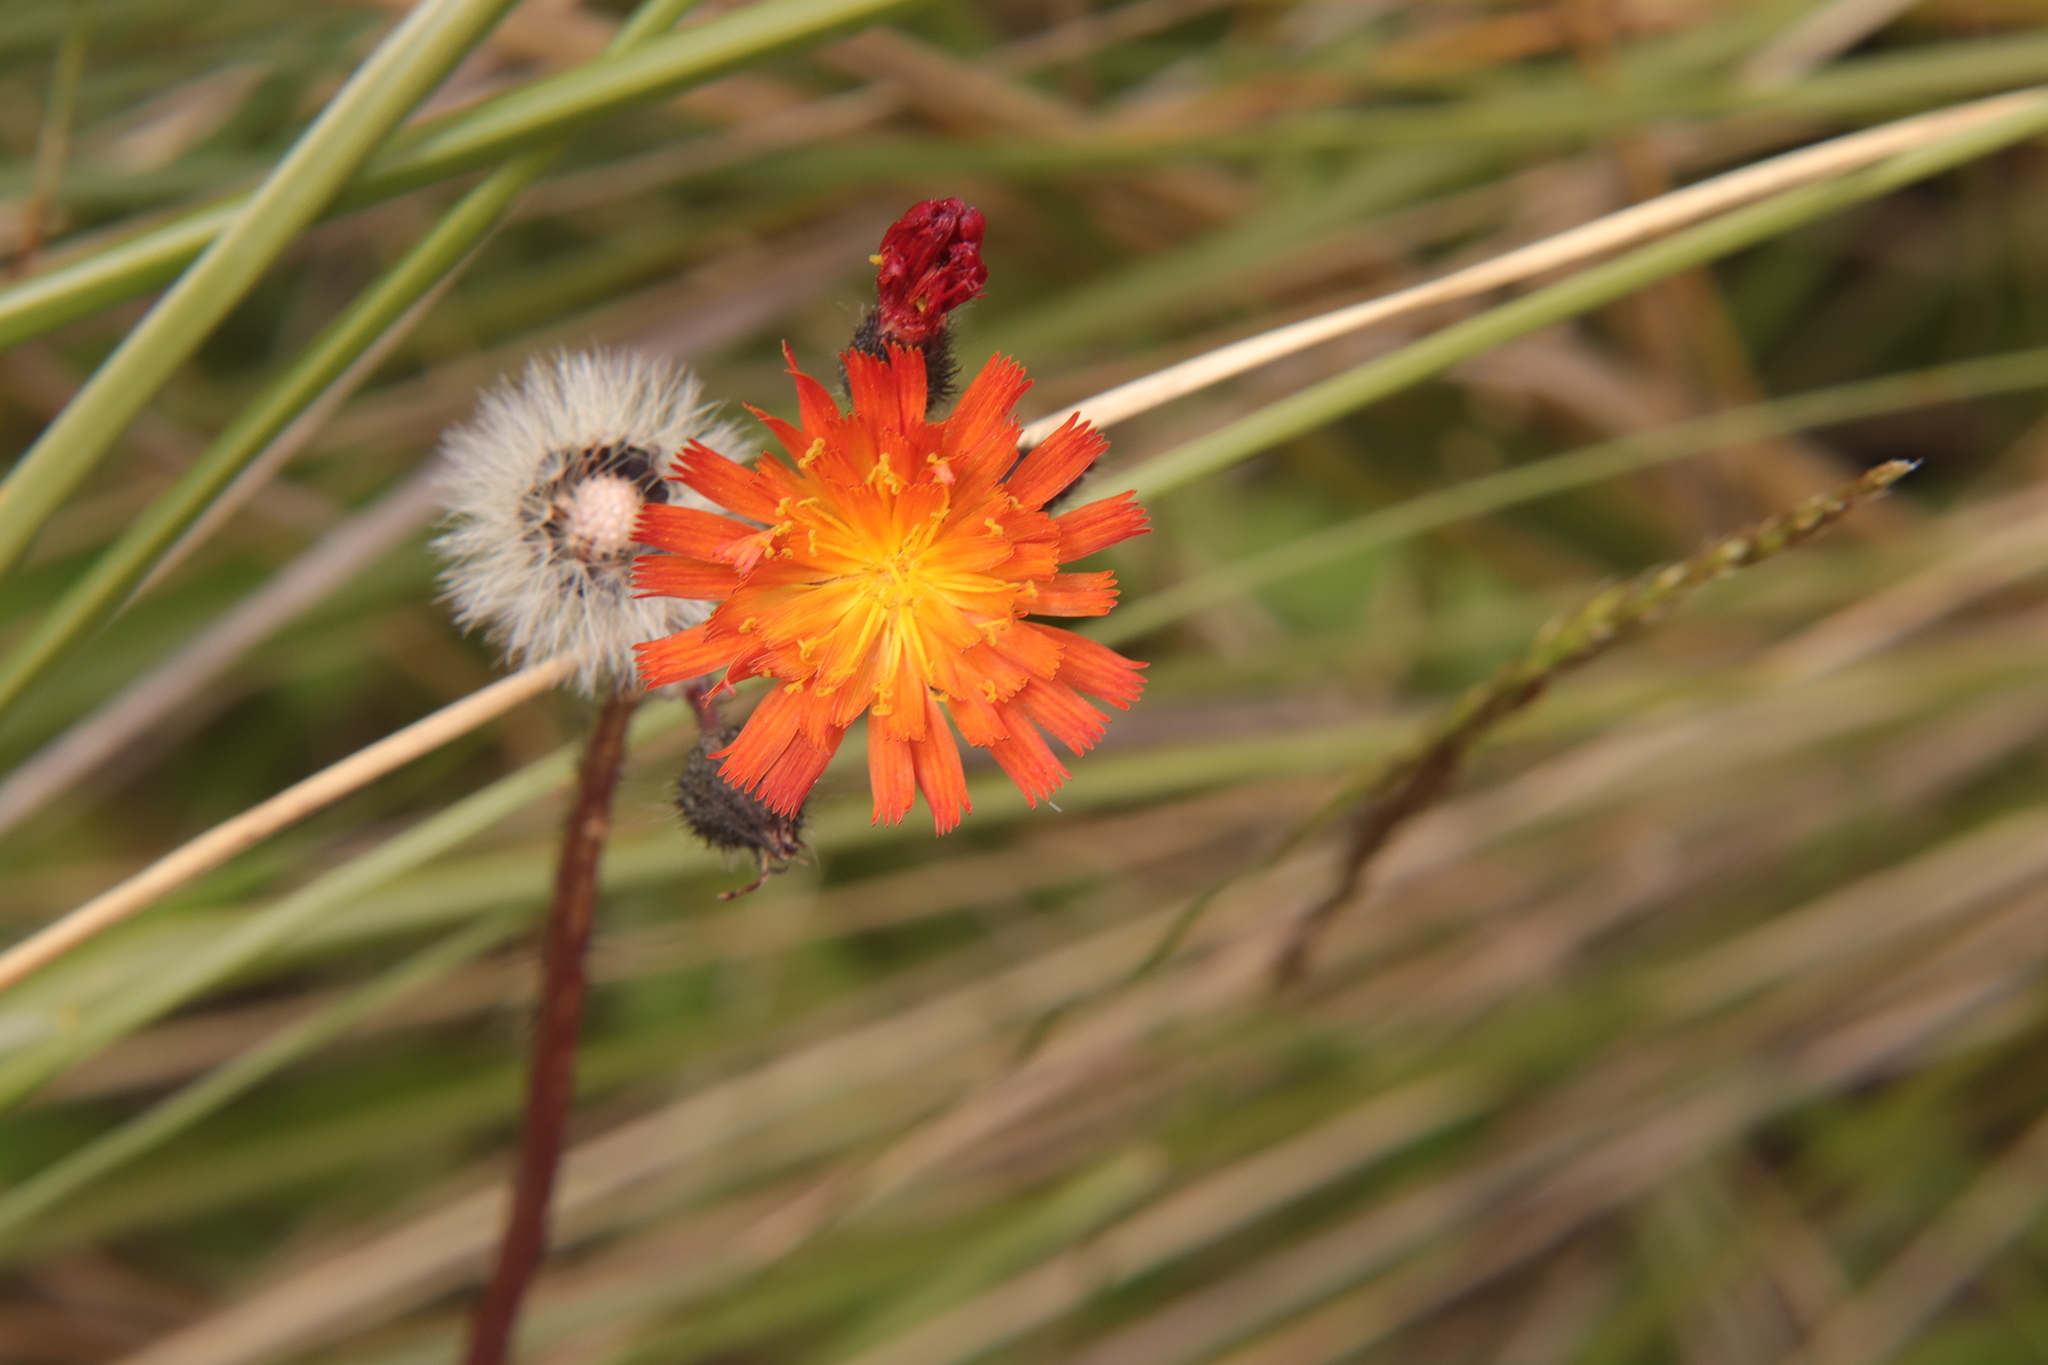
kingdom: Plantae
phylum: Tracheophyta
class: Magnoliopsida
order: Asterales
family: Asteraceae
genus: Pilosella
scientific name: Pilosella aurantiaca
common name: Fox-and-cubs
